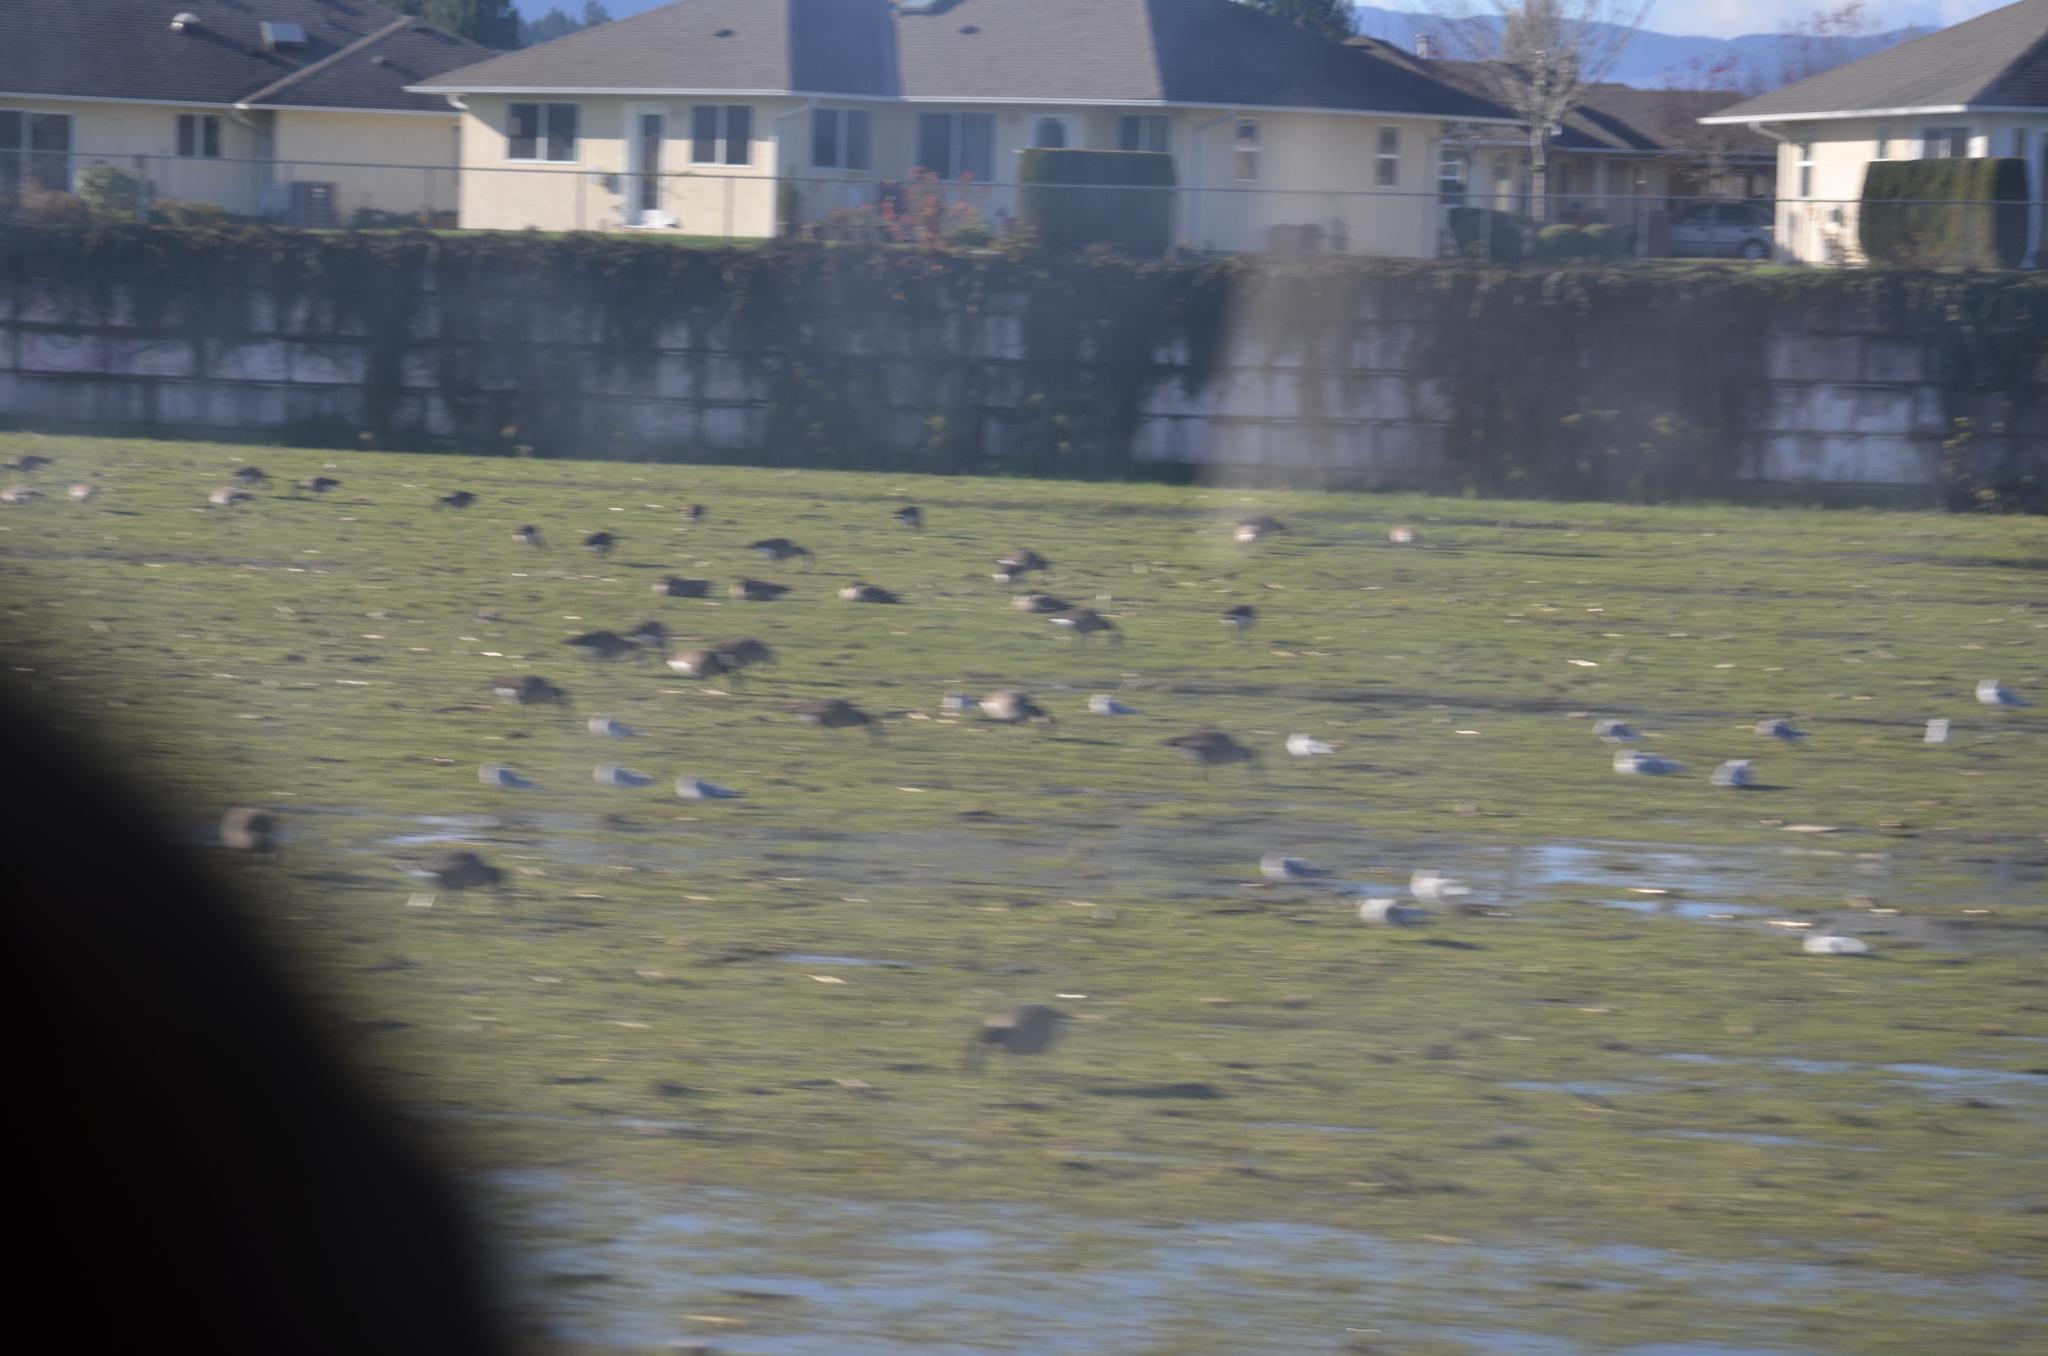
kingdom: Animalia
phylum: Chordata
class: Aves
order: Anseriformes
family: Anatidae
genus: Branta
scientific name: Branta canadensis
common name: Canada goose
